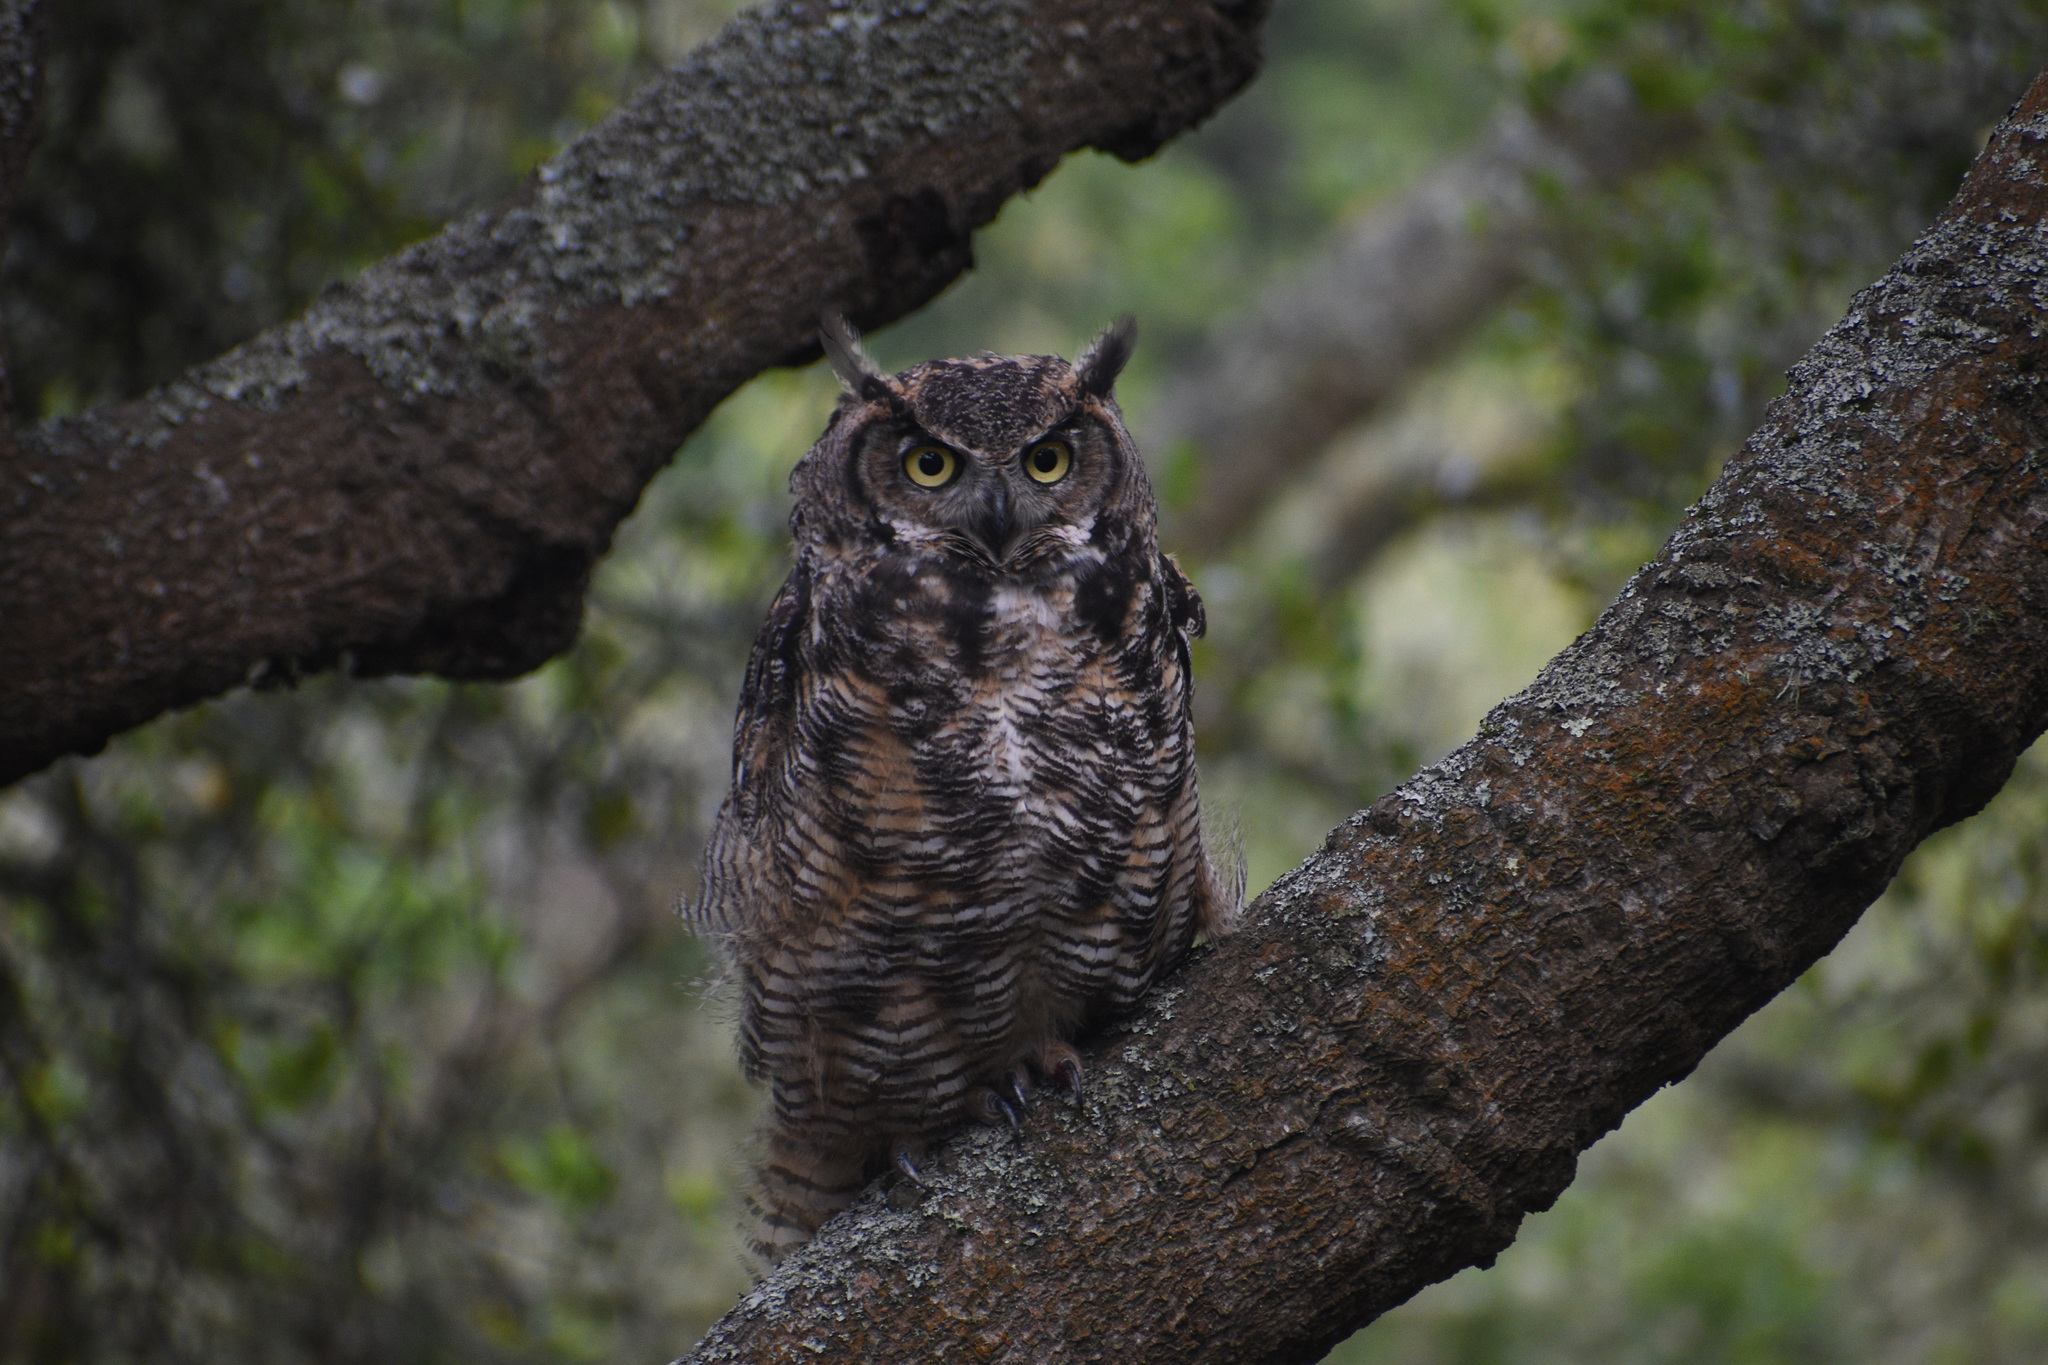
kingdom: Animalia
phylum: Chordata
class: Aves
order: Strigiformes
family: Strigidae
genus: Bubo
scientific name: Bubo virginianus
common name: Great horned owl
